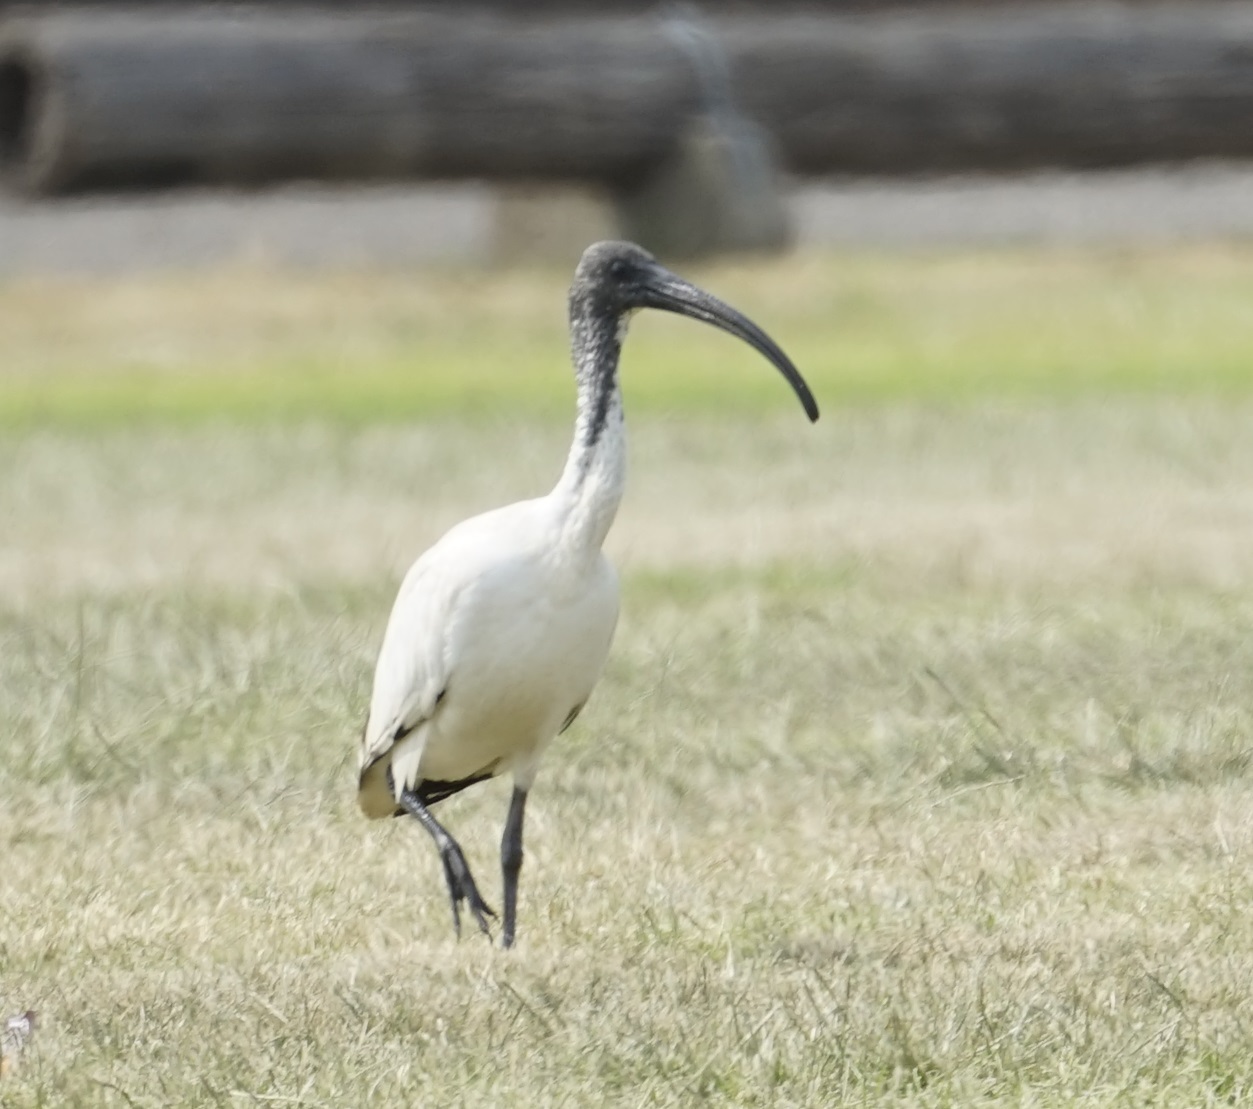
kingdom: Animalia
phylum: Chordata
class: Aves
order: Pelecaniformes
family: Threskiornithidae
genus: Threskiornis
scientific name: Threskiornis molucca
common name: Australian white ibis
